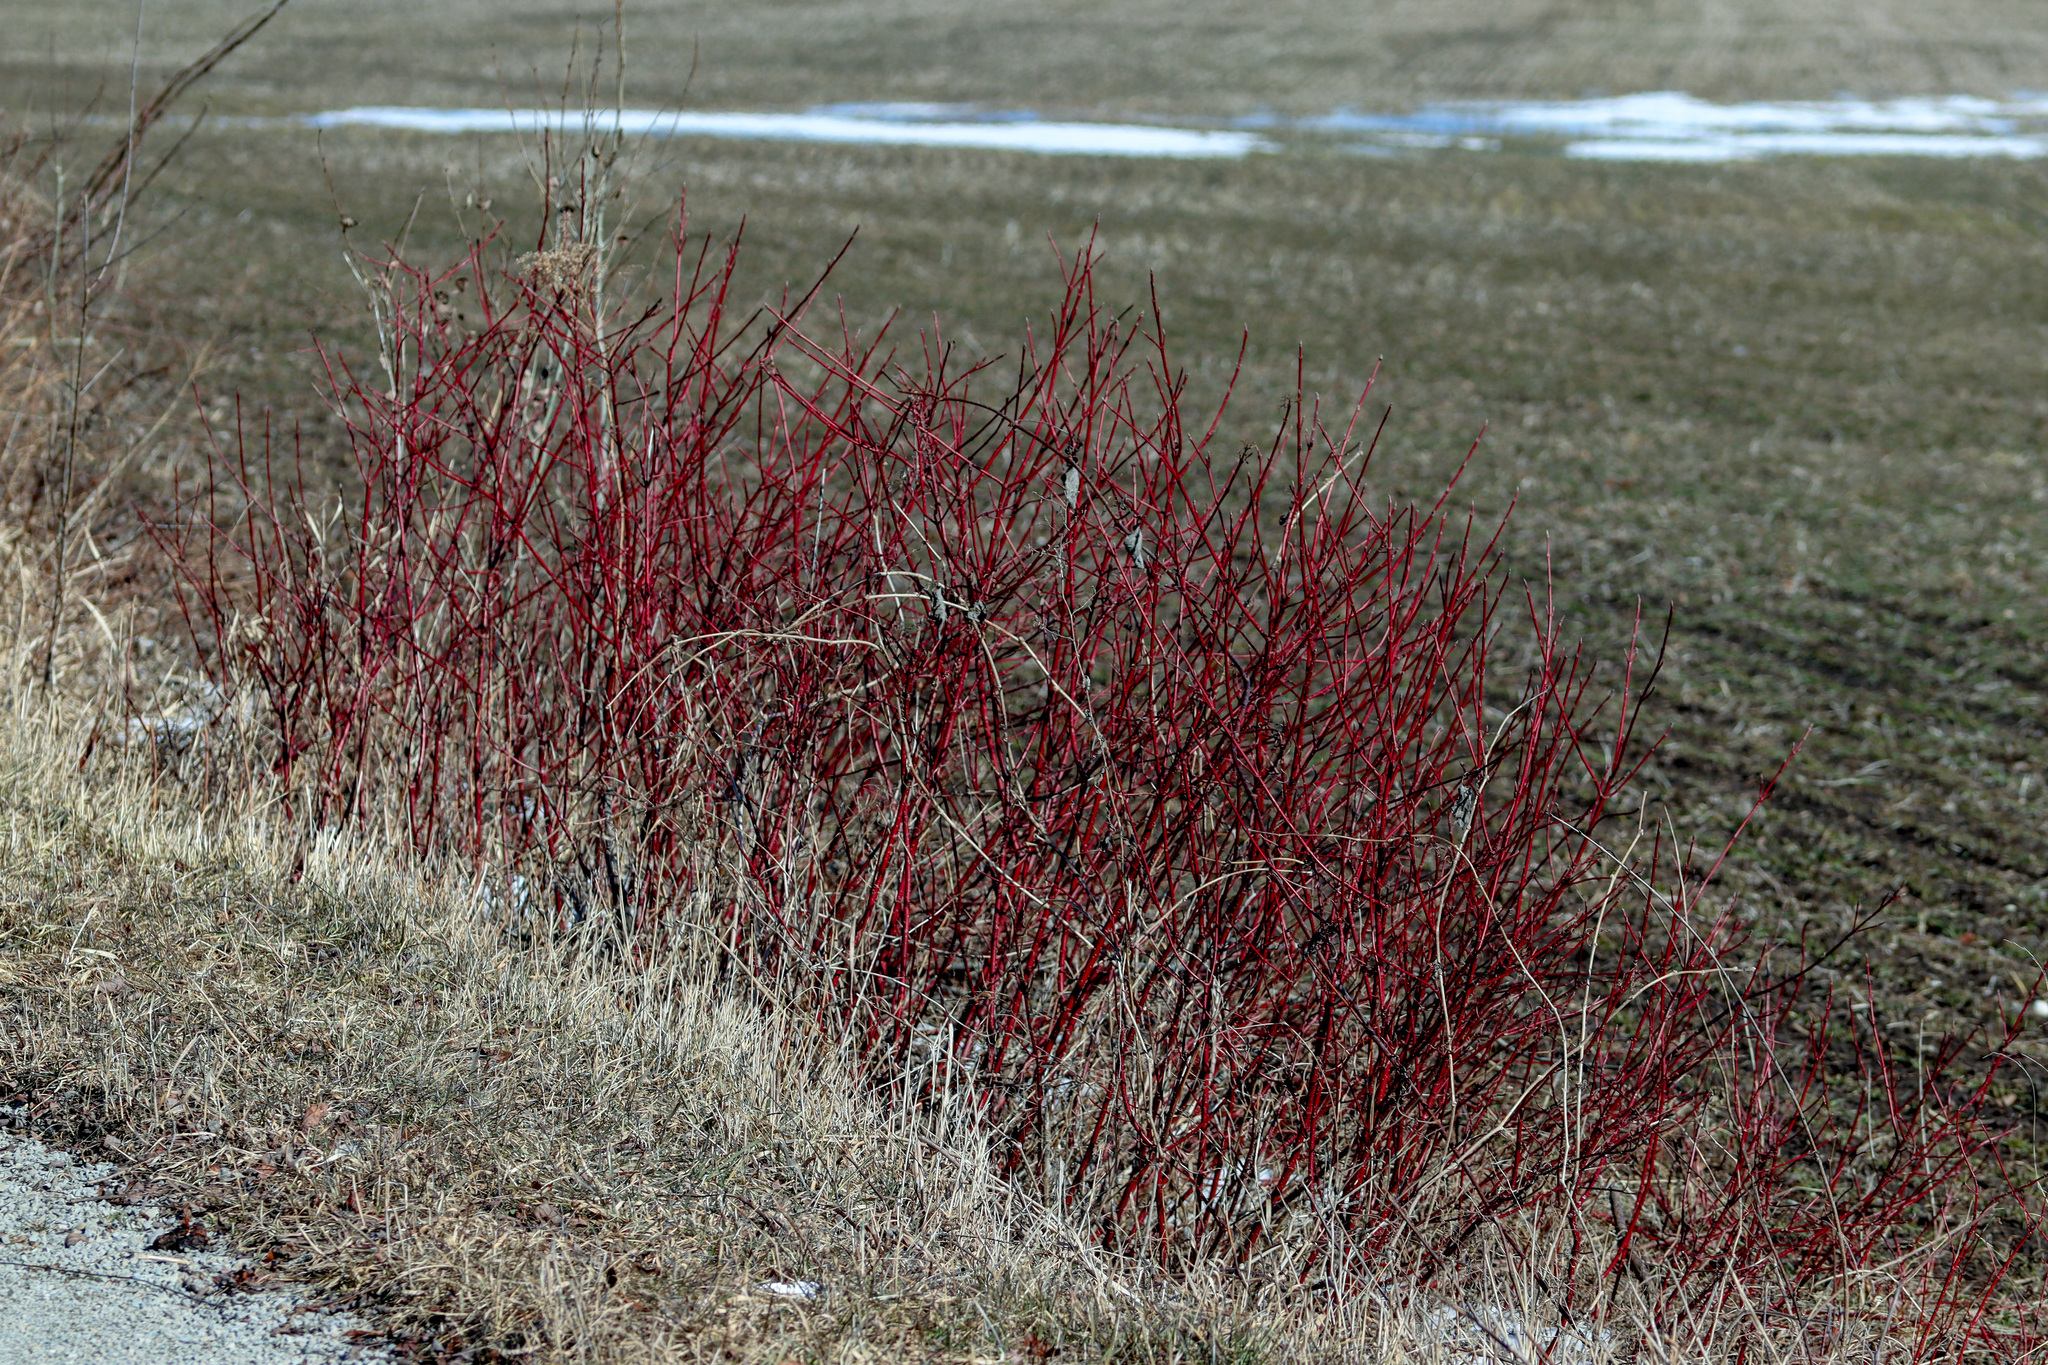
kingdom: Plantae
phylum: Tracheophyta
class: Magnoliopsida
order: Cornales
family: Cornaceae
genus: Cornus
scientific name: Cornus sericea
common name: Red-osier dogwood
